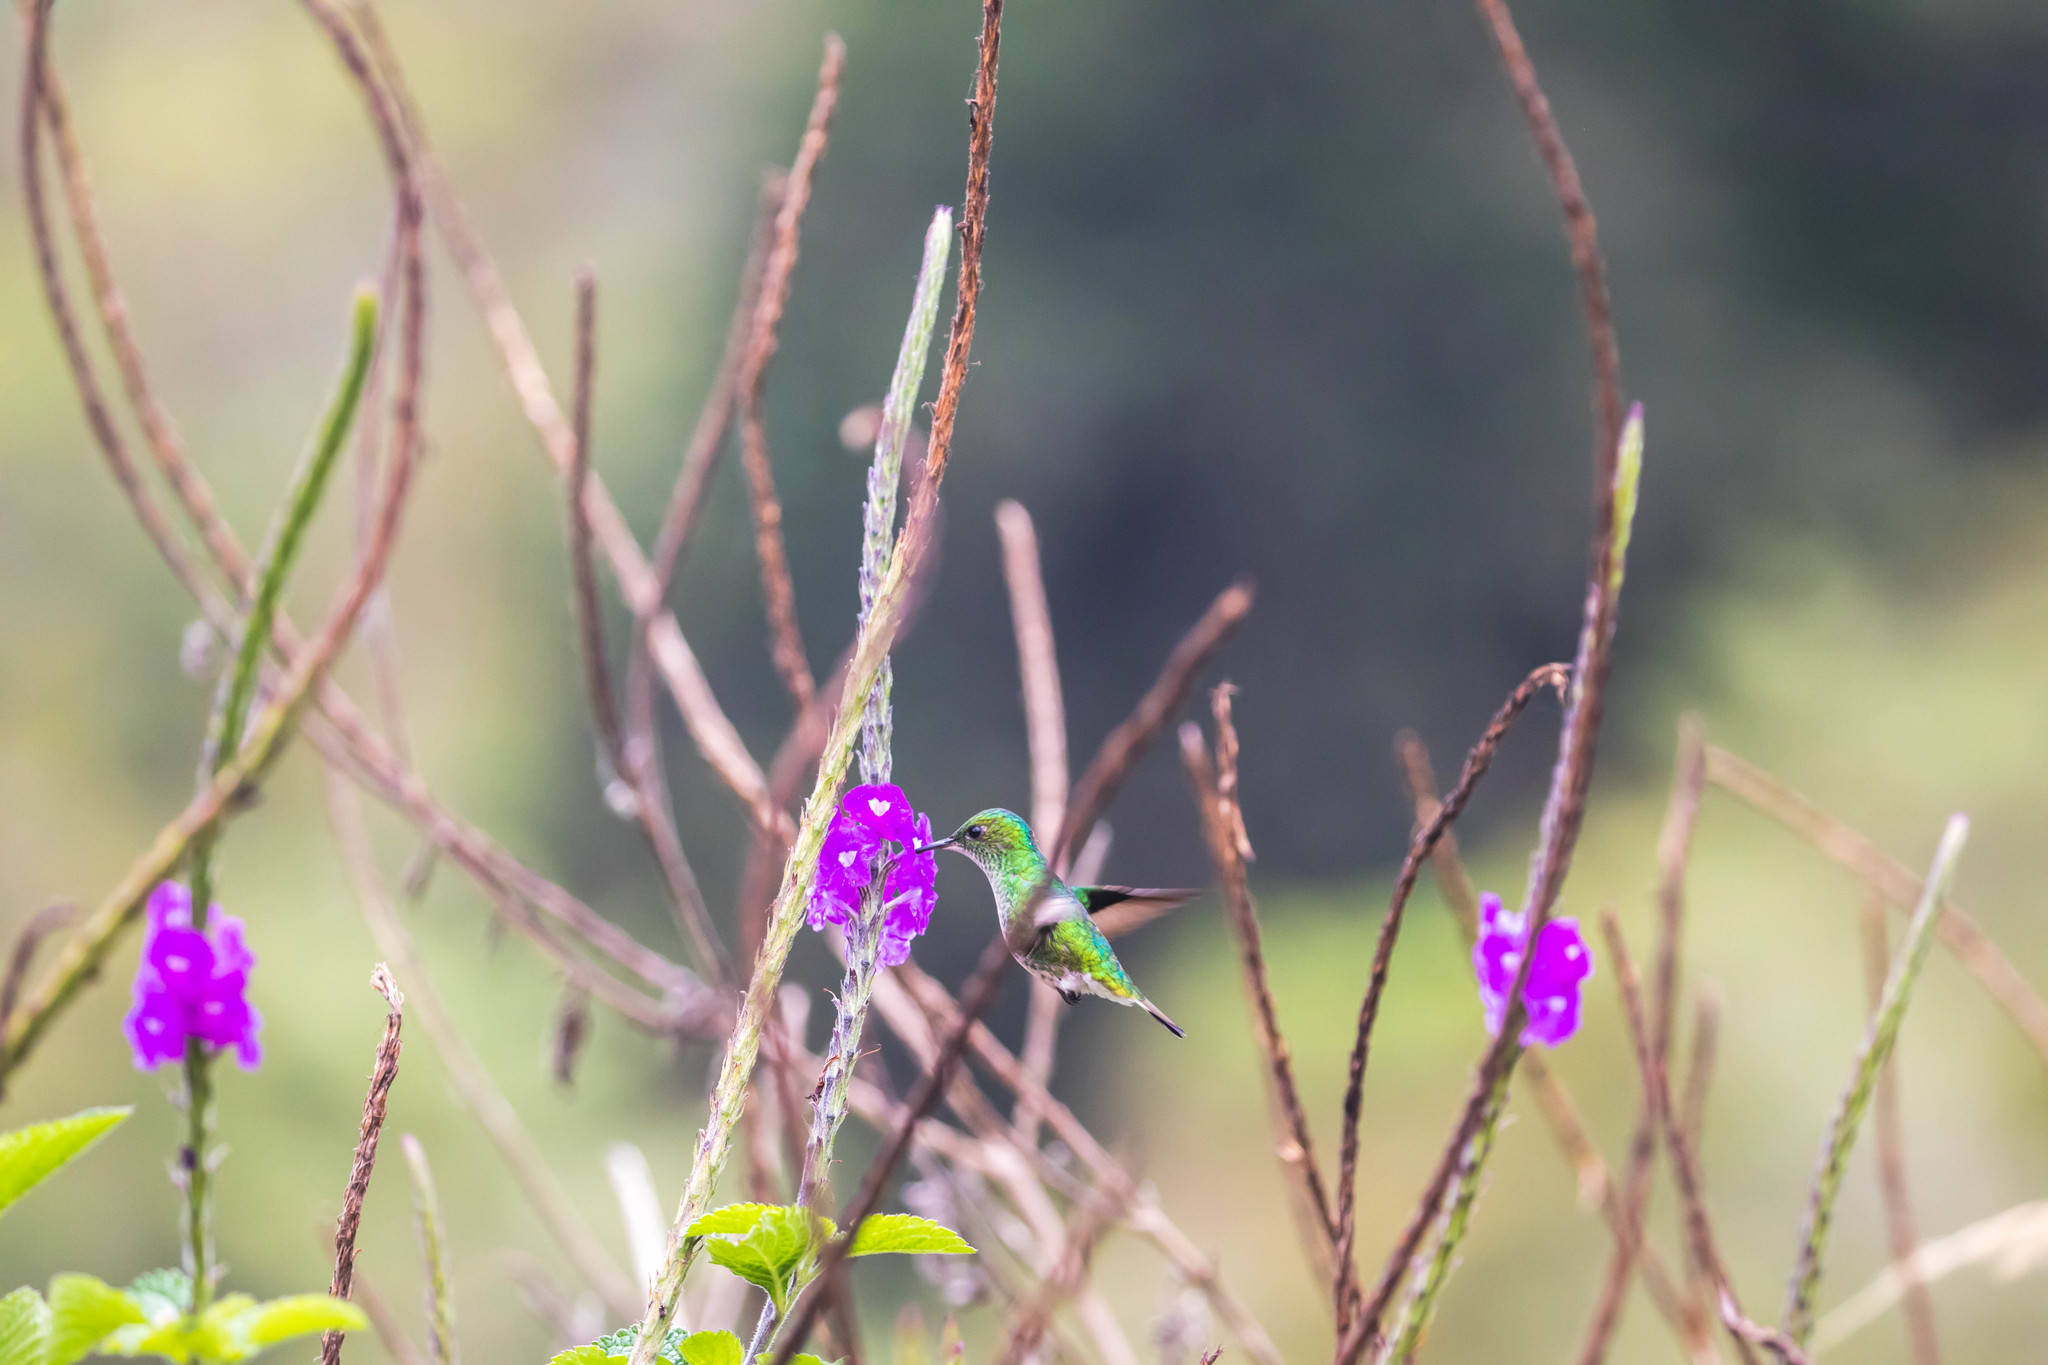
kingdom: Animalia
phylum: Chordata
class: Aves
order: Apodiformes
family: Trochilidae
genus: Microchera
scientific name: Microchera chionura
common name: White-tailed emerald
